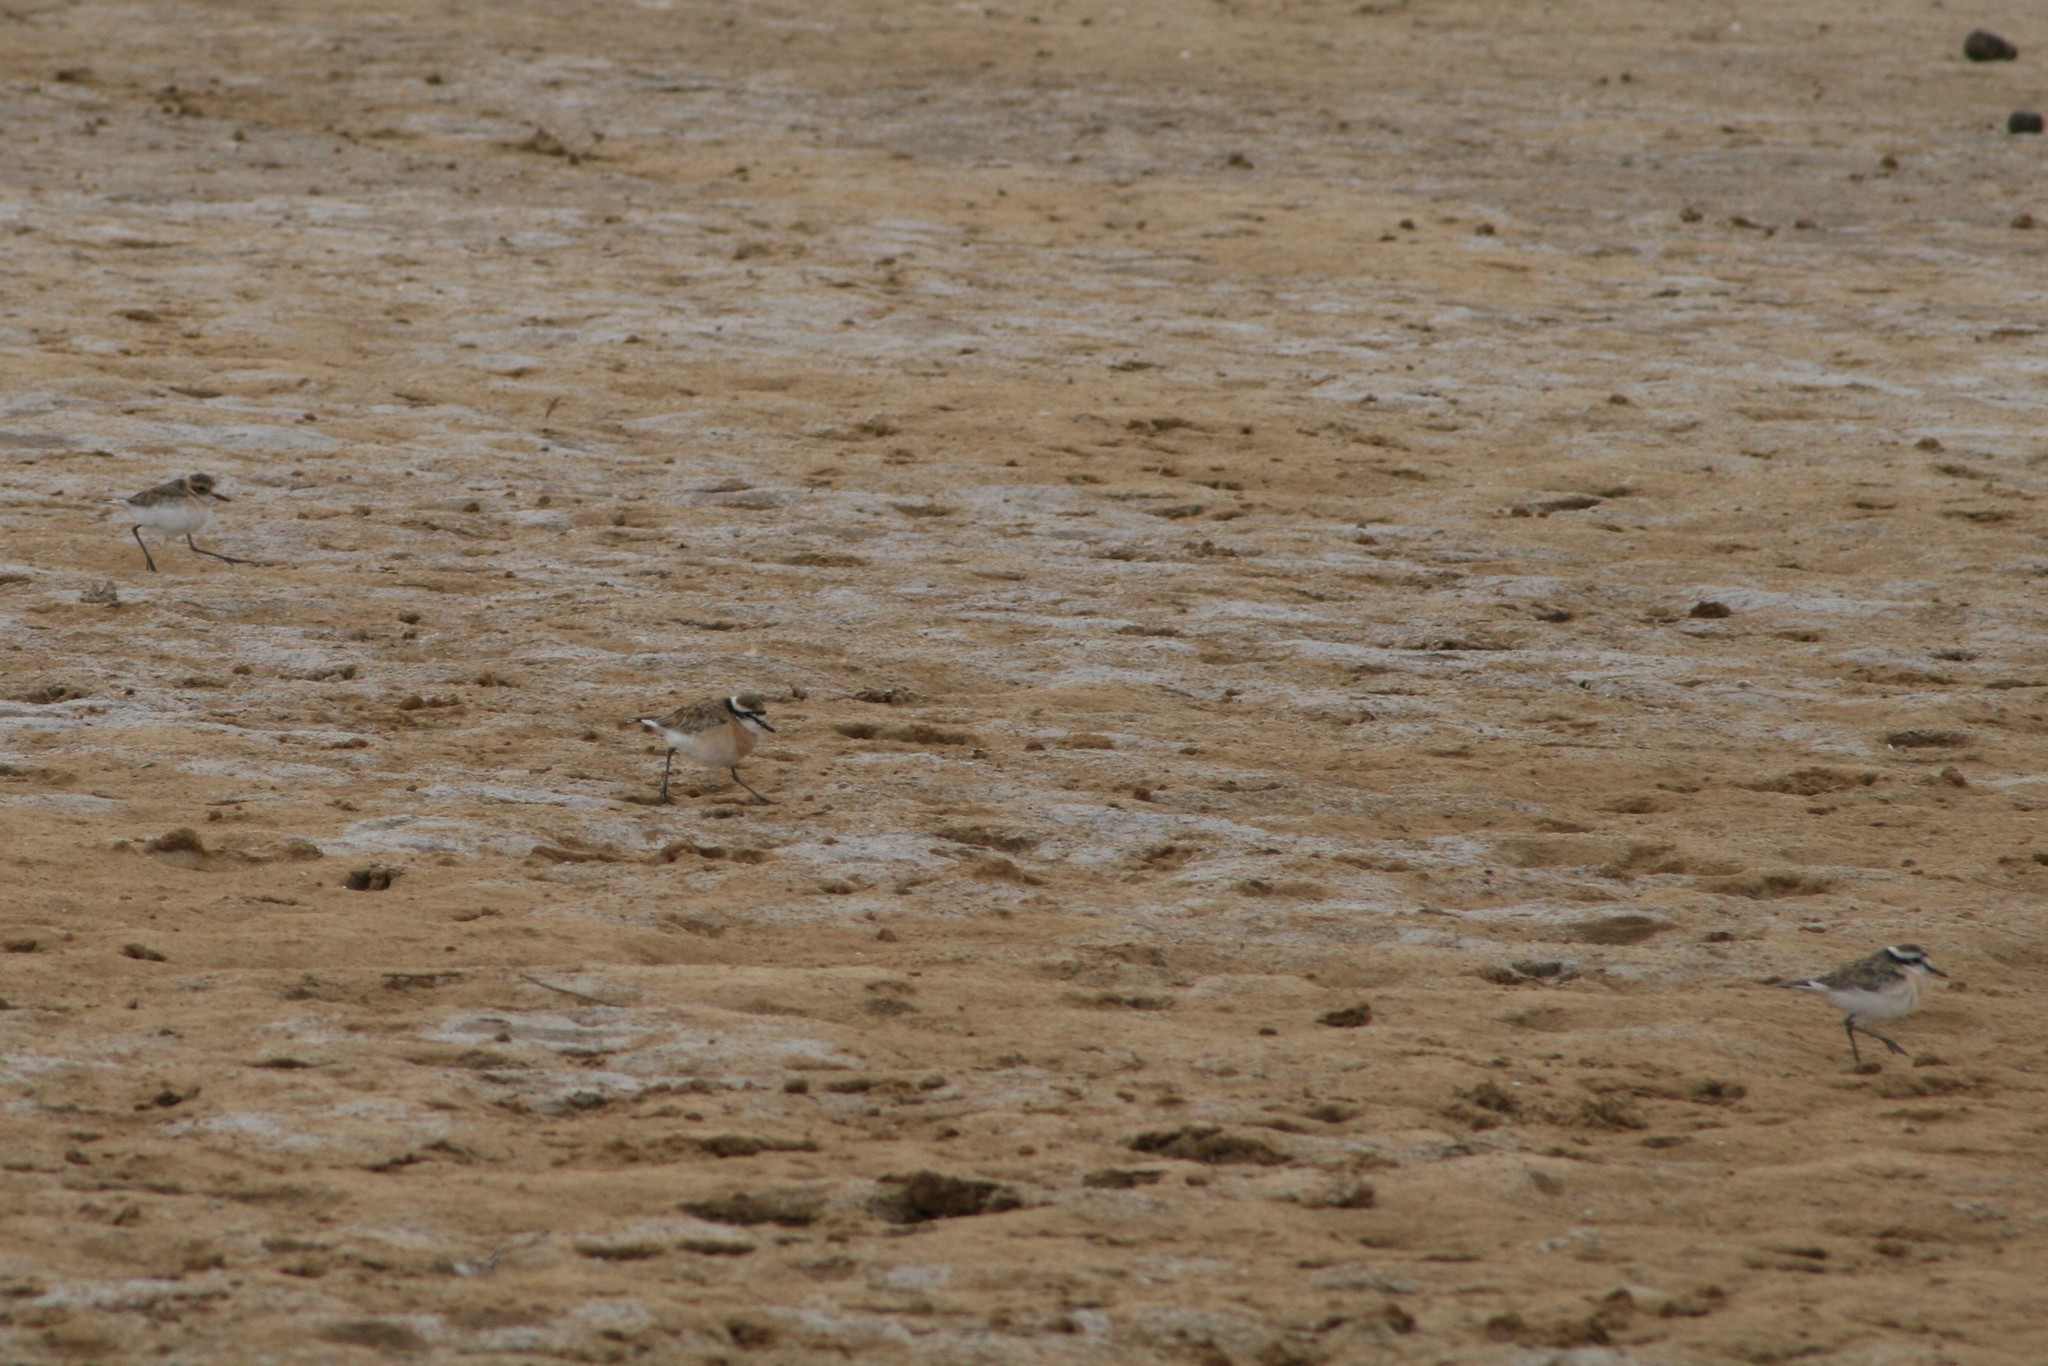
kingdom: Animalia
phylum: Chordata
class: Aves
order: Charadriiformes
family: Charadriidae
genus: Anarhynchus
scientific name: Anarhynchus
